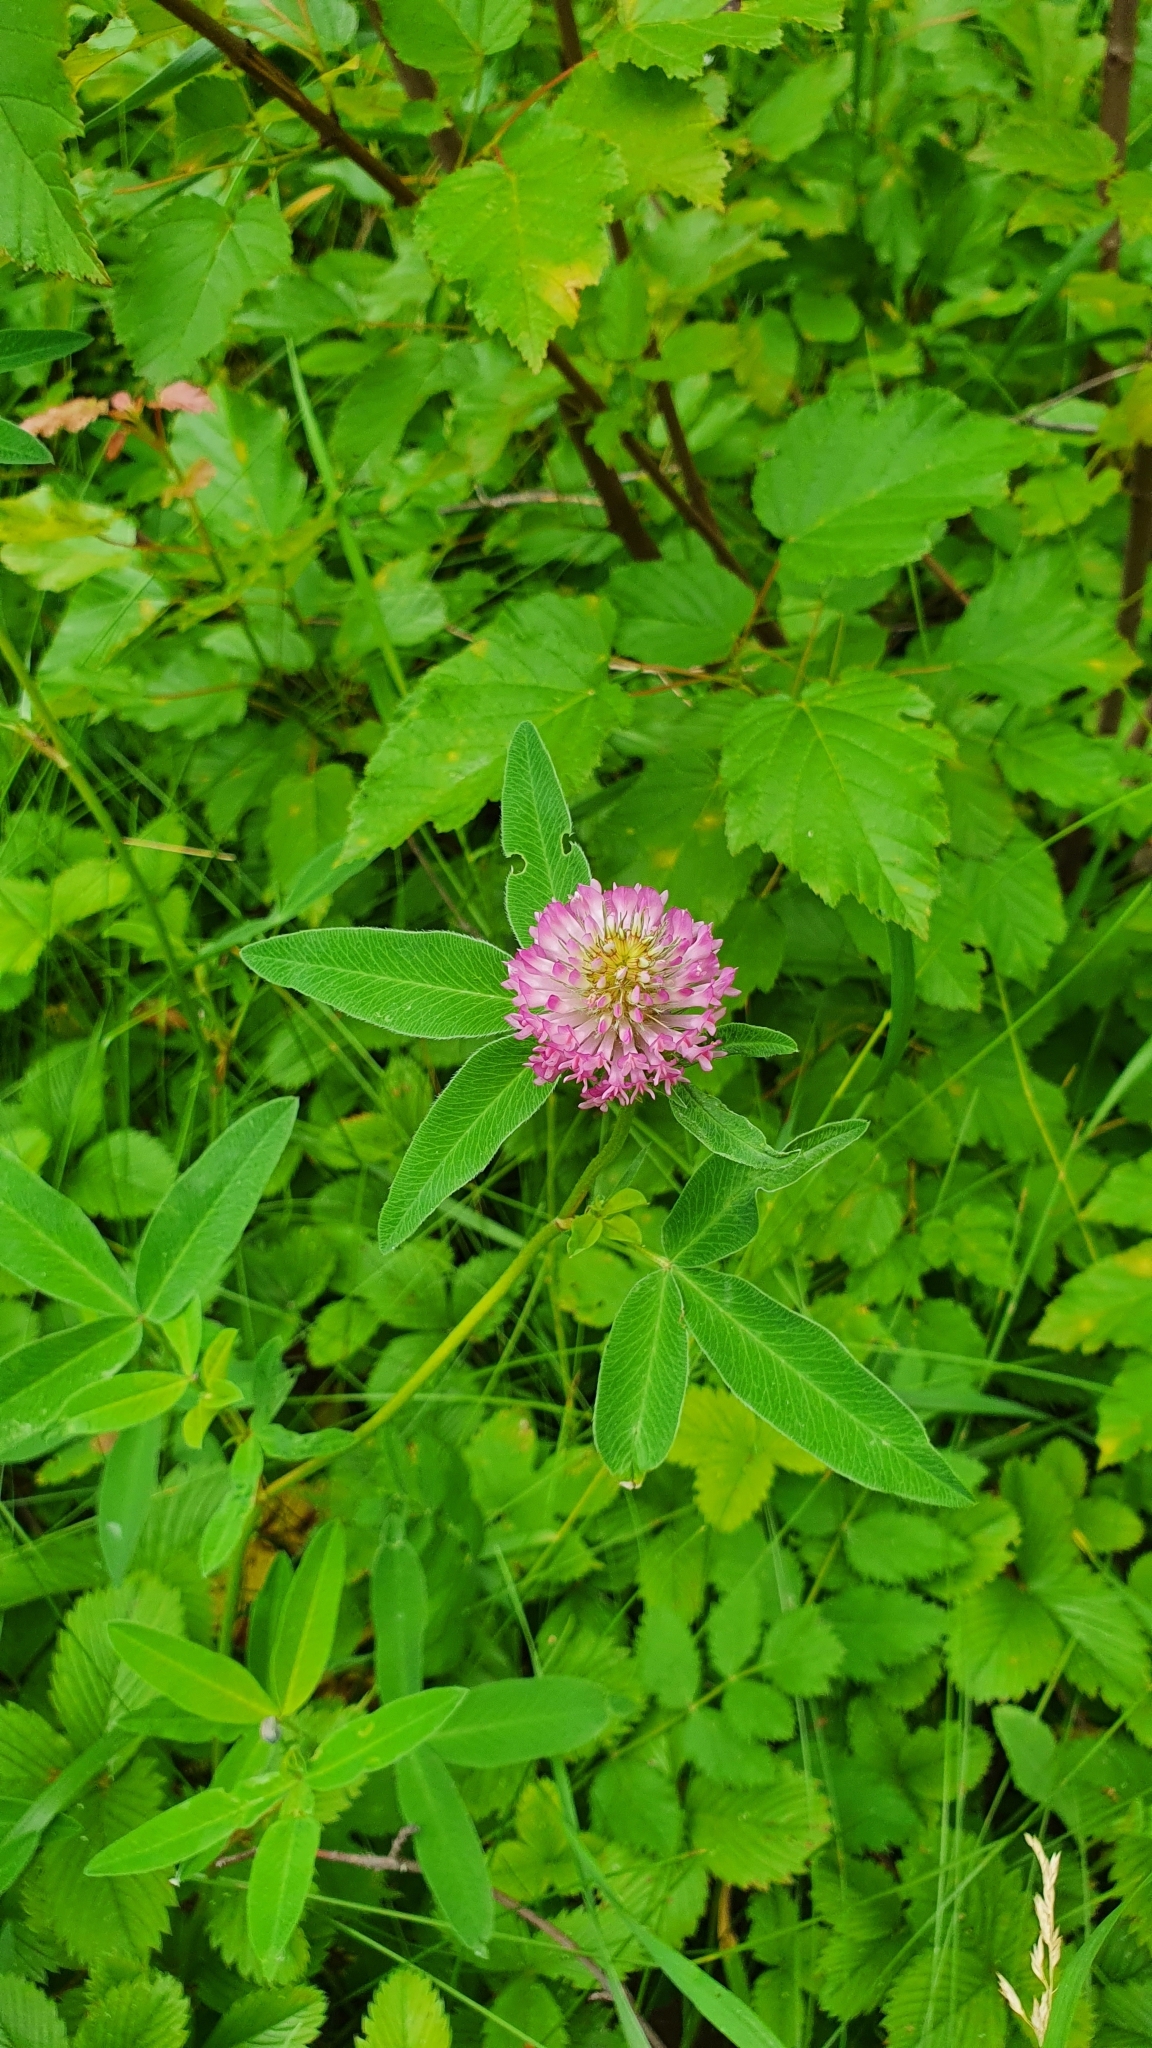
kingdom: Plantae
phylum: Tracheophyta
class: Magnoliopsida
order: Fabales
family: Fabaceae
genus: Trifolium
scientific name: Trifolium medium
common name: Zigzag clover
